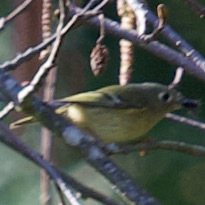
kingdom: Animalia
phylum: Chordata
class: Aves
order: Passeriformes
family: Regulidae
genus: Regulus
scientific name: Regulus calendula
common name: Ruby-crowned kinglet
